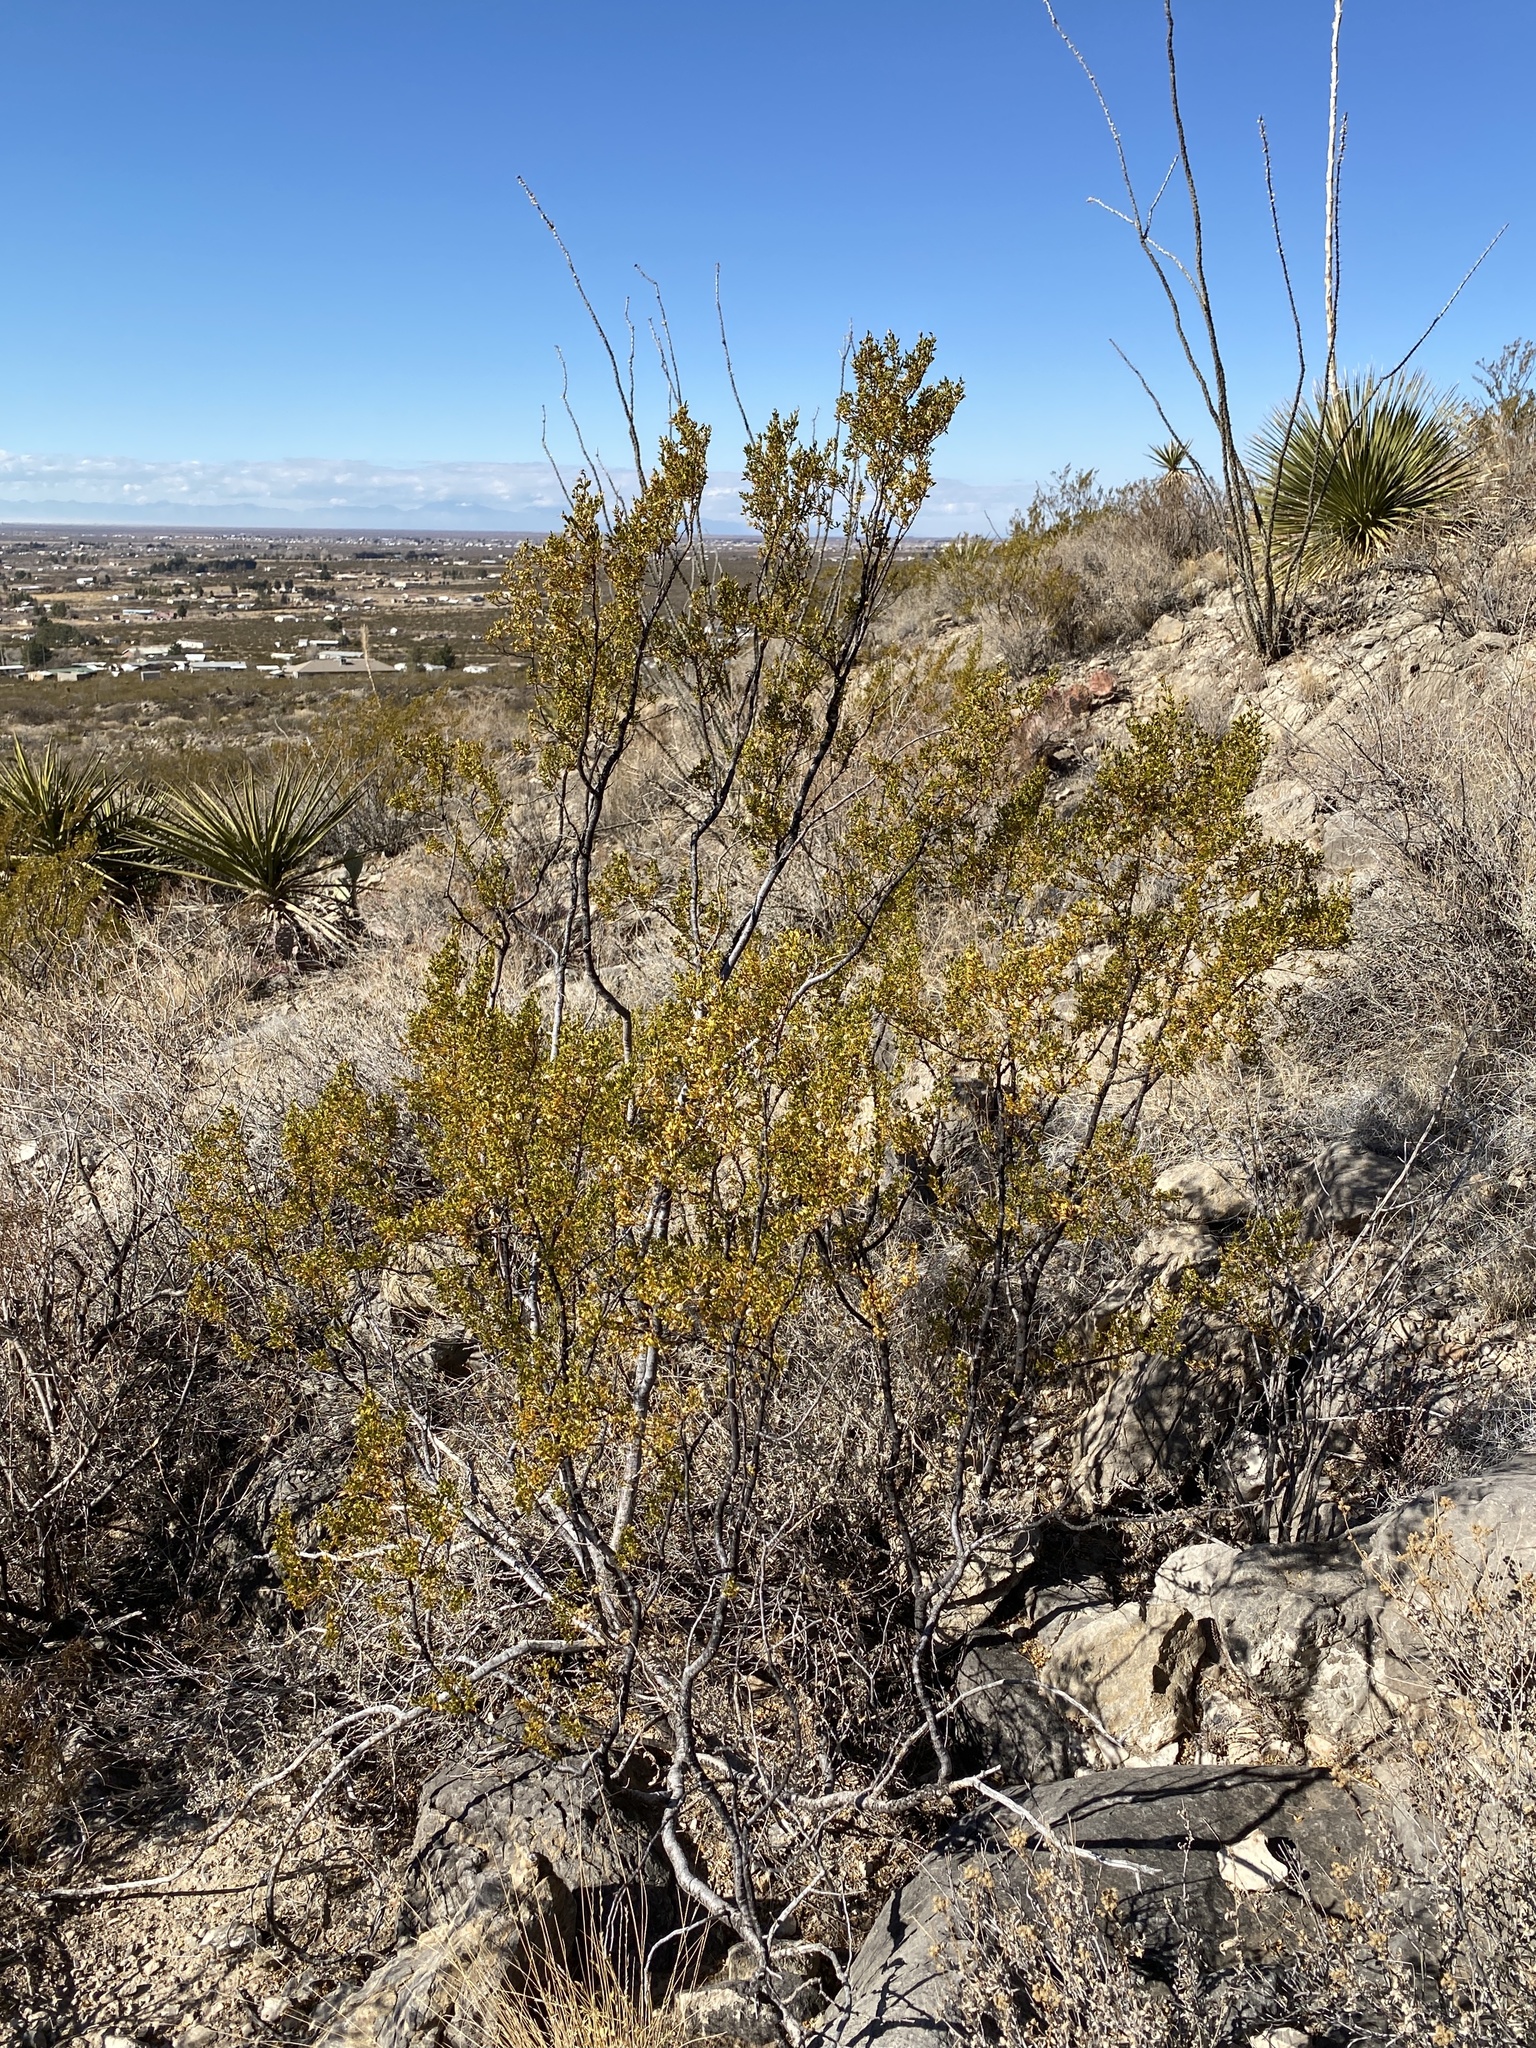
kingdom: Plantae
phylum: Tracheophyta
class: Magnoliopsida
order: Zygophyllales
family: Zygophyllaceae
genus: Larrea
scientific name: Larrea tridentata
